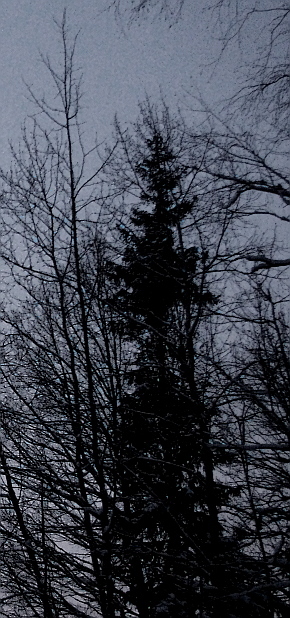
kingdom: Plantae
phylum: Tracheophyta
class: Pinopsida
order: Pinales
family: Pinaceae
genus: Picea
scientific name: Picea abies
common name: Norway spruce
